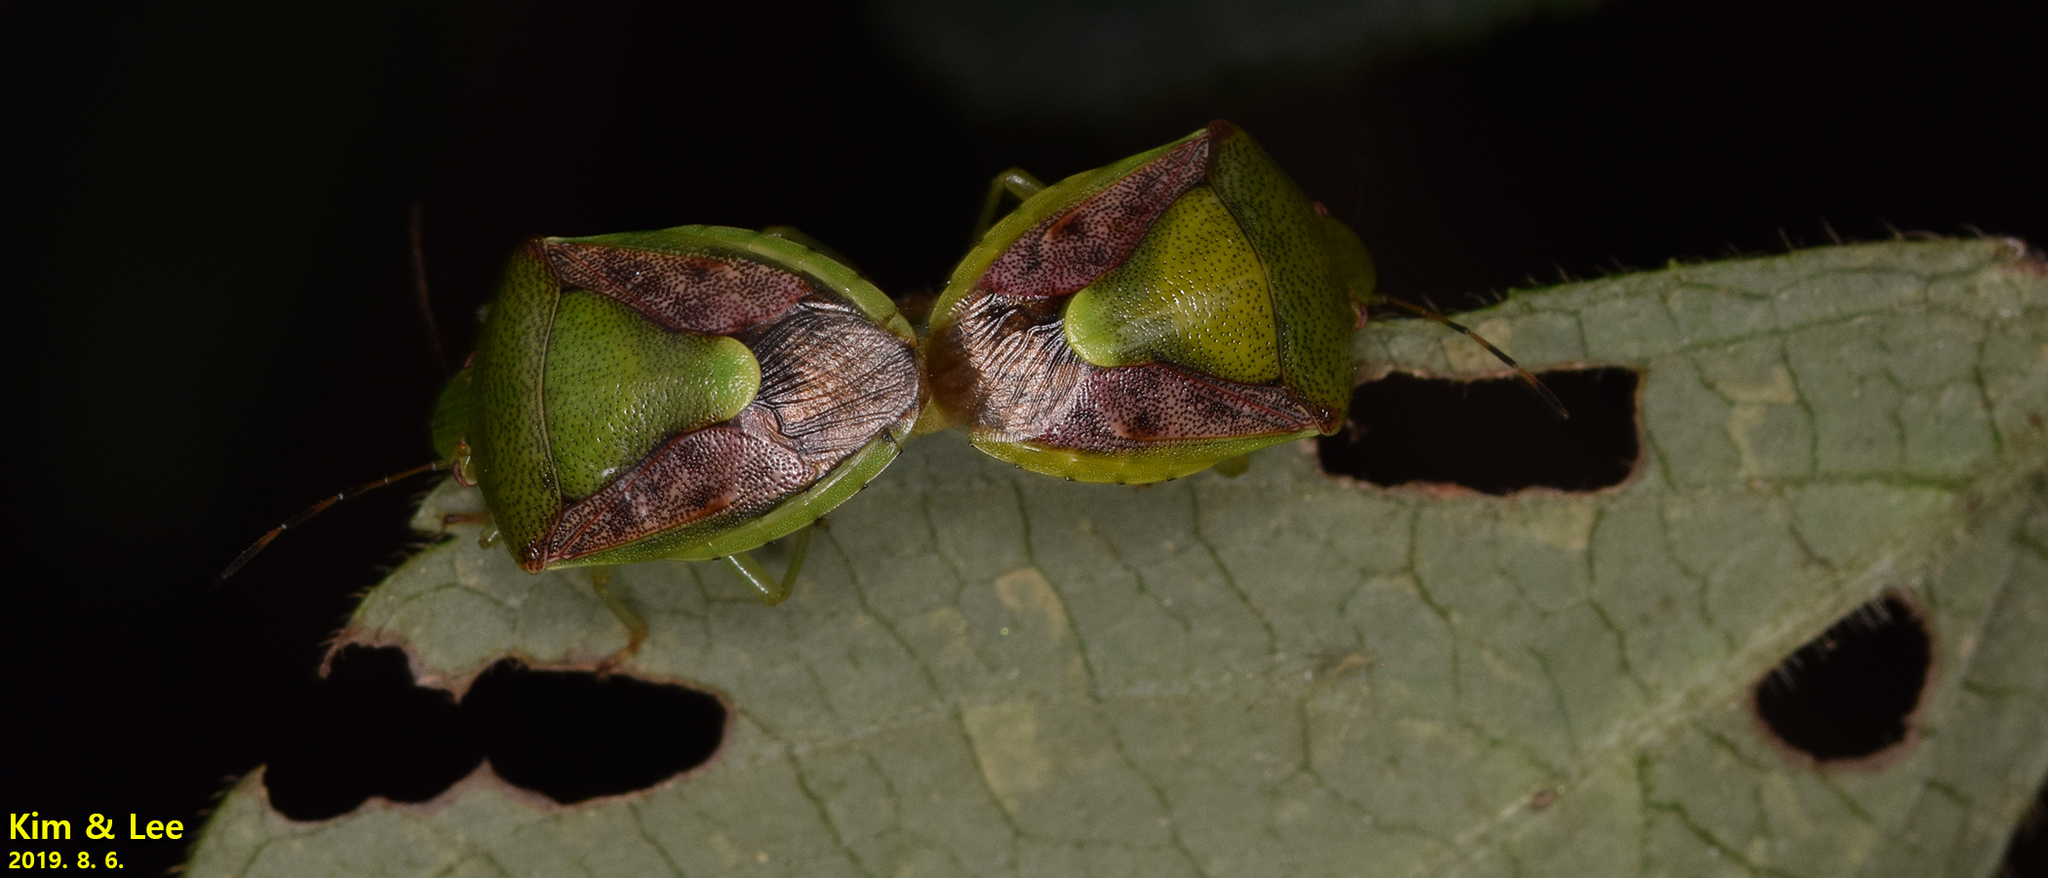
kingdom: Animalia
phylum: Arthropoda
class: Insecta
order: Hemiptera
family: Pentatomidae
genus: Plautia
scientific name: Plautia stali
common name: Stink bug
